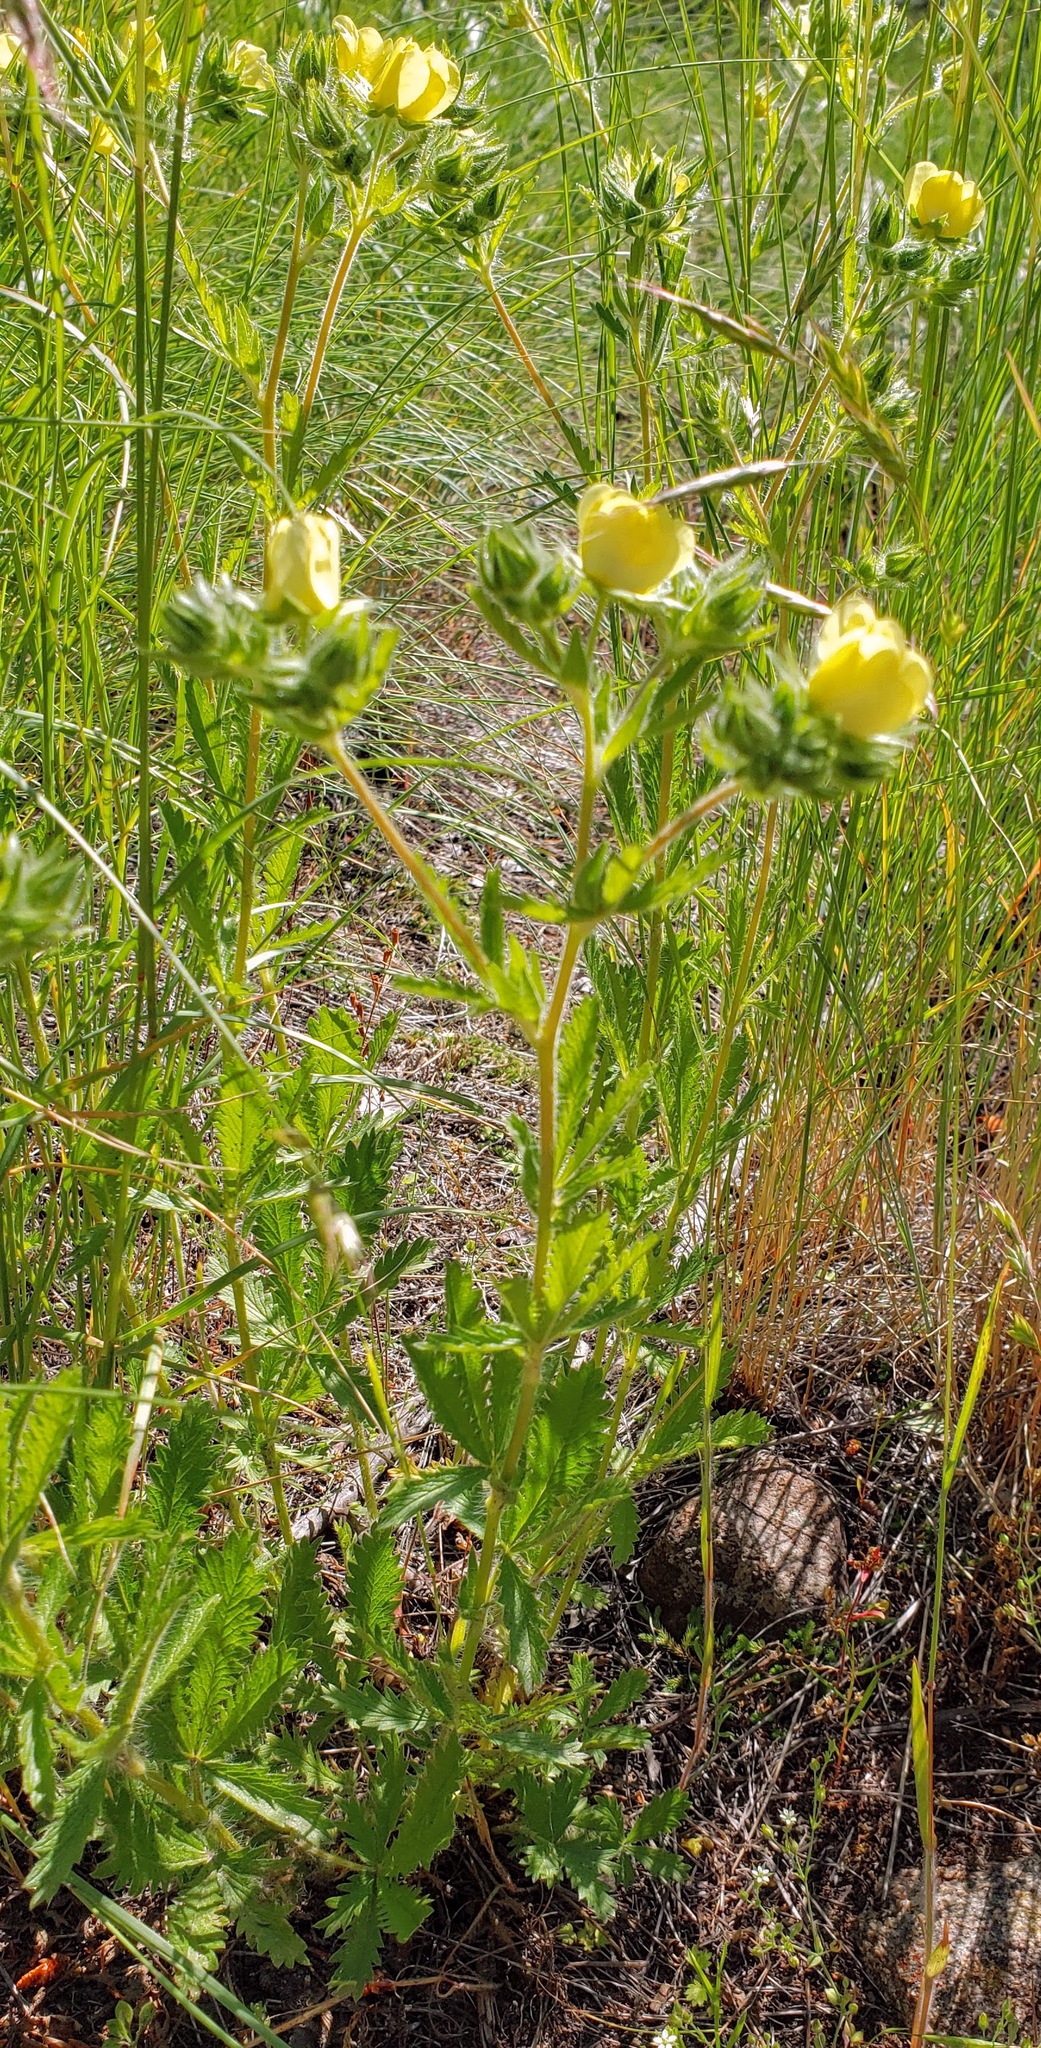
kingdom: Plantae
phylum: Tracheophyta
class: Magnoliopsida
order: Rosales
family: Rosaceae
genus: Potentilla
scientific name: Potentilla recta
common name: Sulphur cinquefoil
